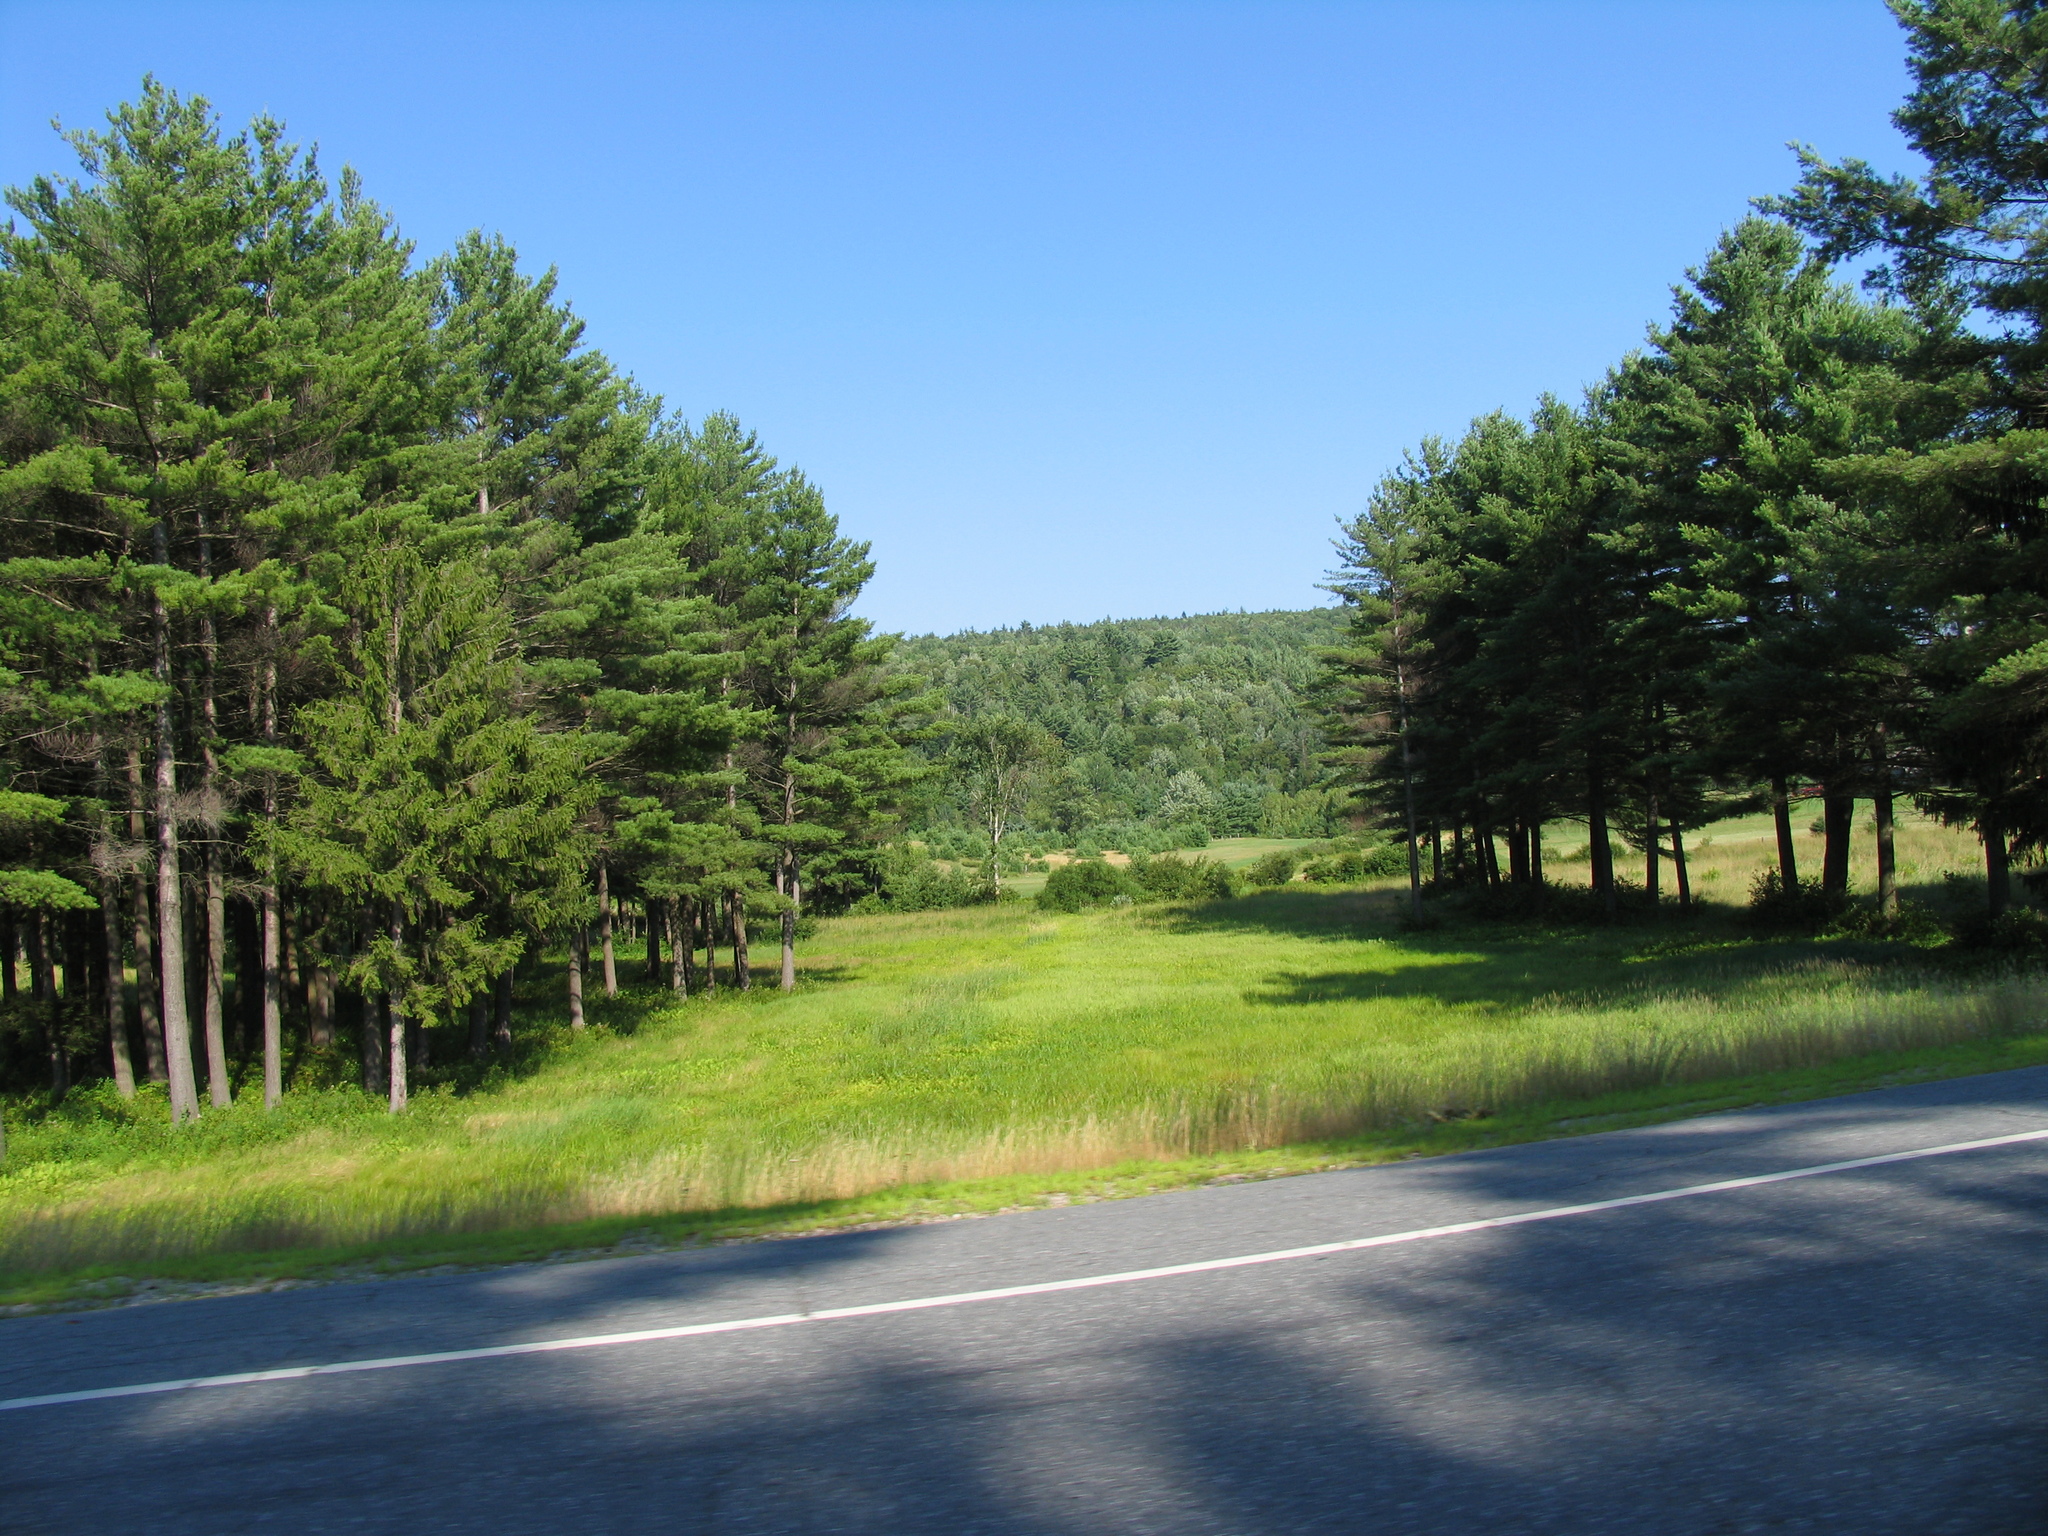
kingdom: Plantae
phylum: Tracheophyta
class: Pinopsida
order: Pinales
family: Pinaceae
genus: Pinus
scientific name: Pinus strobus
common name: Weymouth pine
